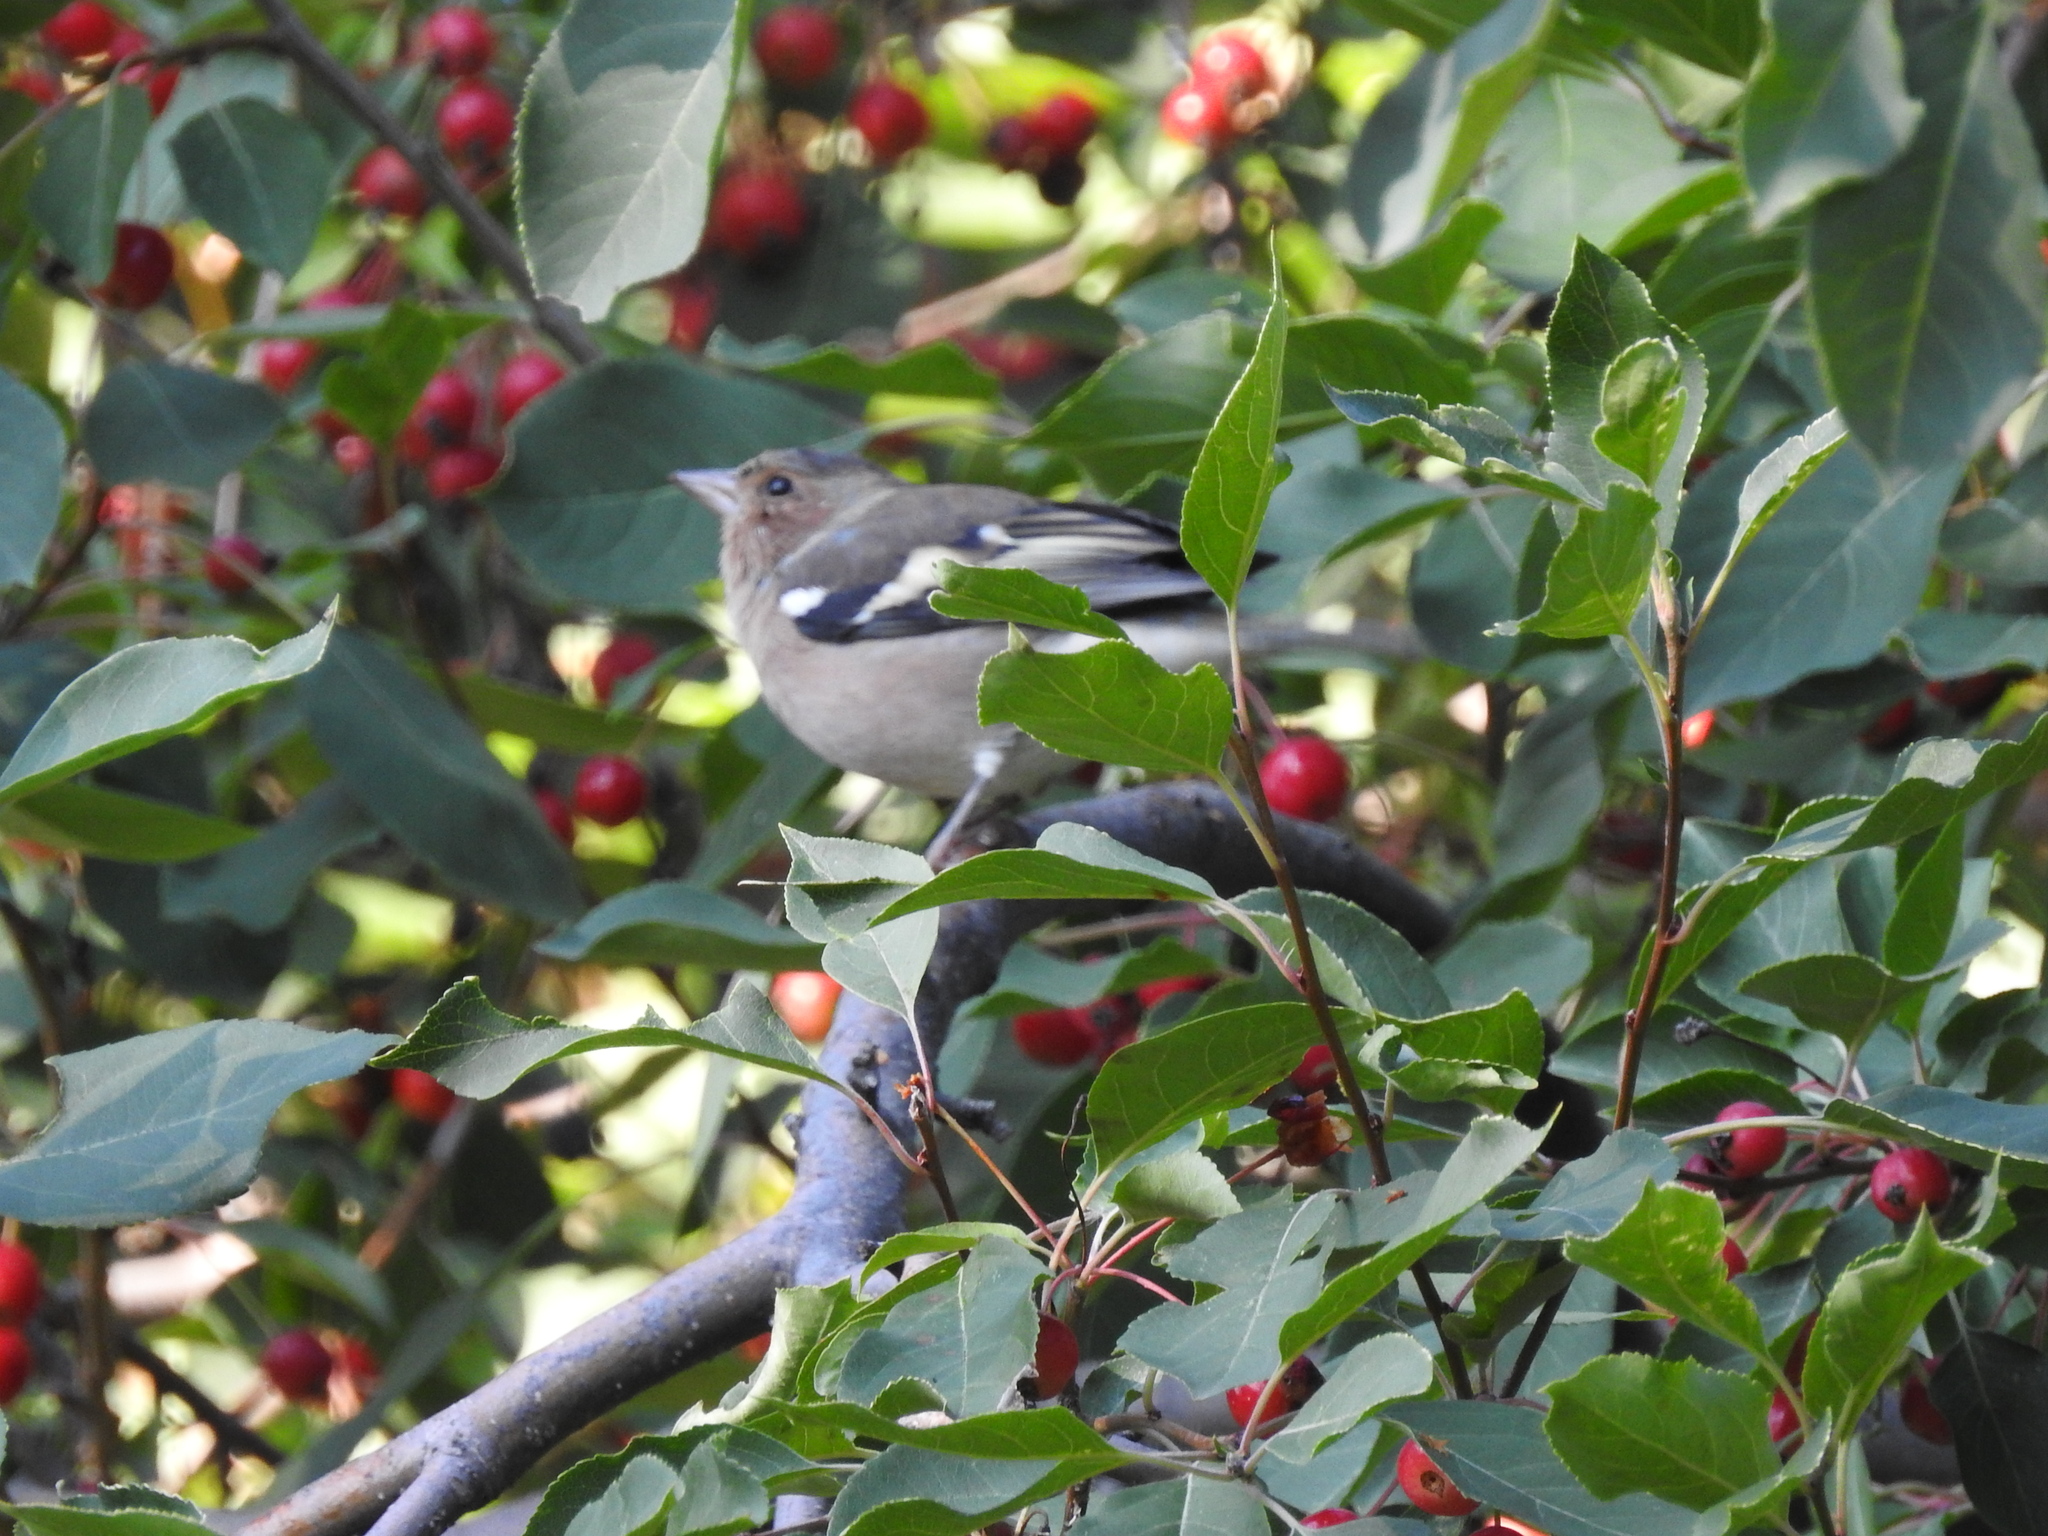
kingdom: Animalia
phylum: Chordata
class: Aves
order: Passeriformes
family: Fringillidae
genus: Fringilla
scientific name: Fringilla coelebs
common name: Common chaffinch
